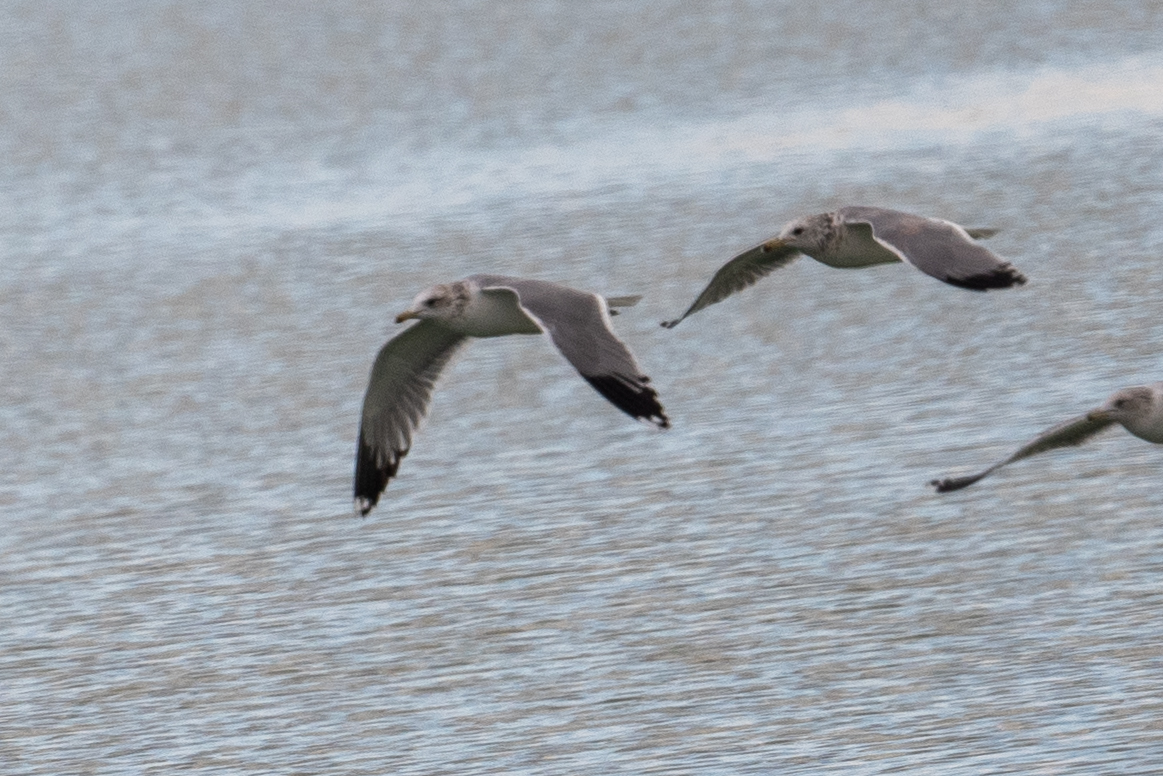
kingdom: Animalia
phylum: Chordata
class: Aves
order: Charadriiformes
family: Laridae
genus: Larus
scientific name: Larus californicus
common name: California gull
